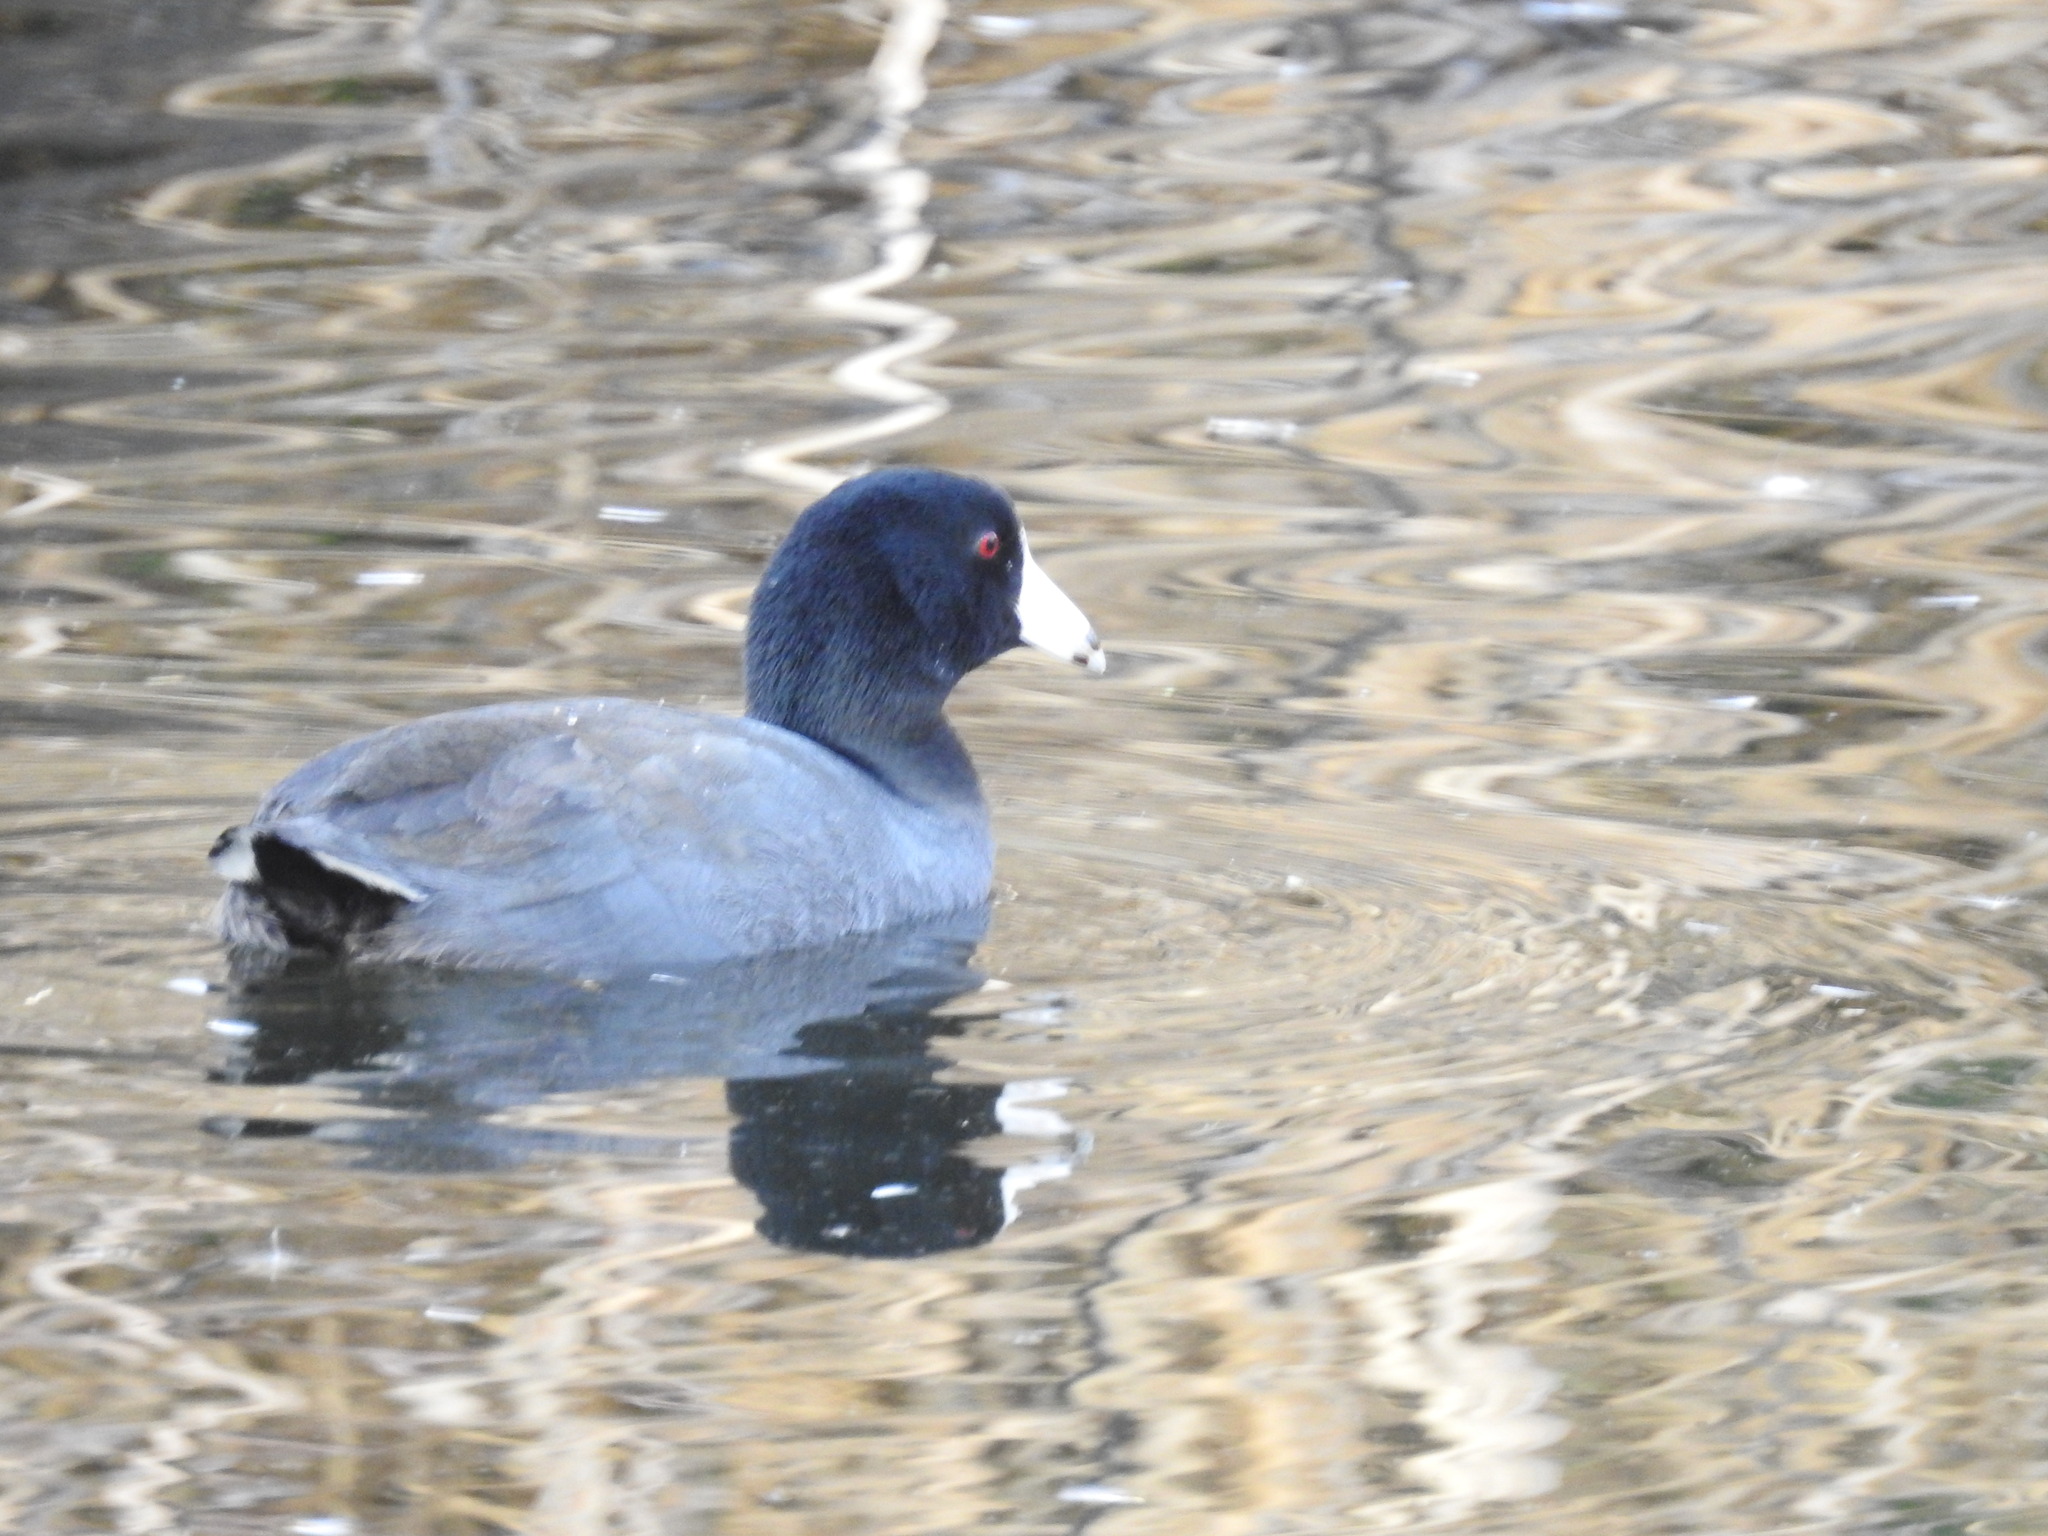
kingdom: Animalia
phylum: Chordata
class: Aves
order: Gruiformes
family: Rallidae
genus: Fulica
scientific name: Fulica americana
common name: American coot
